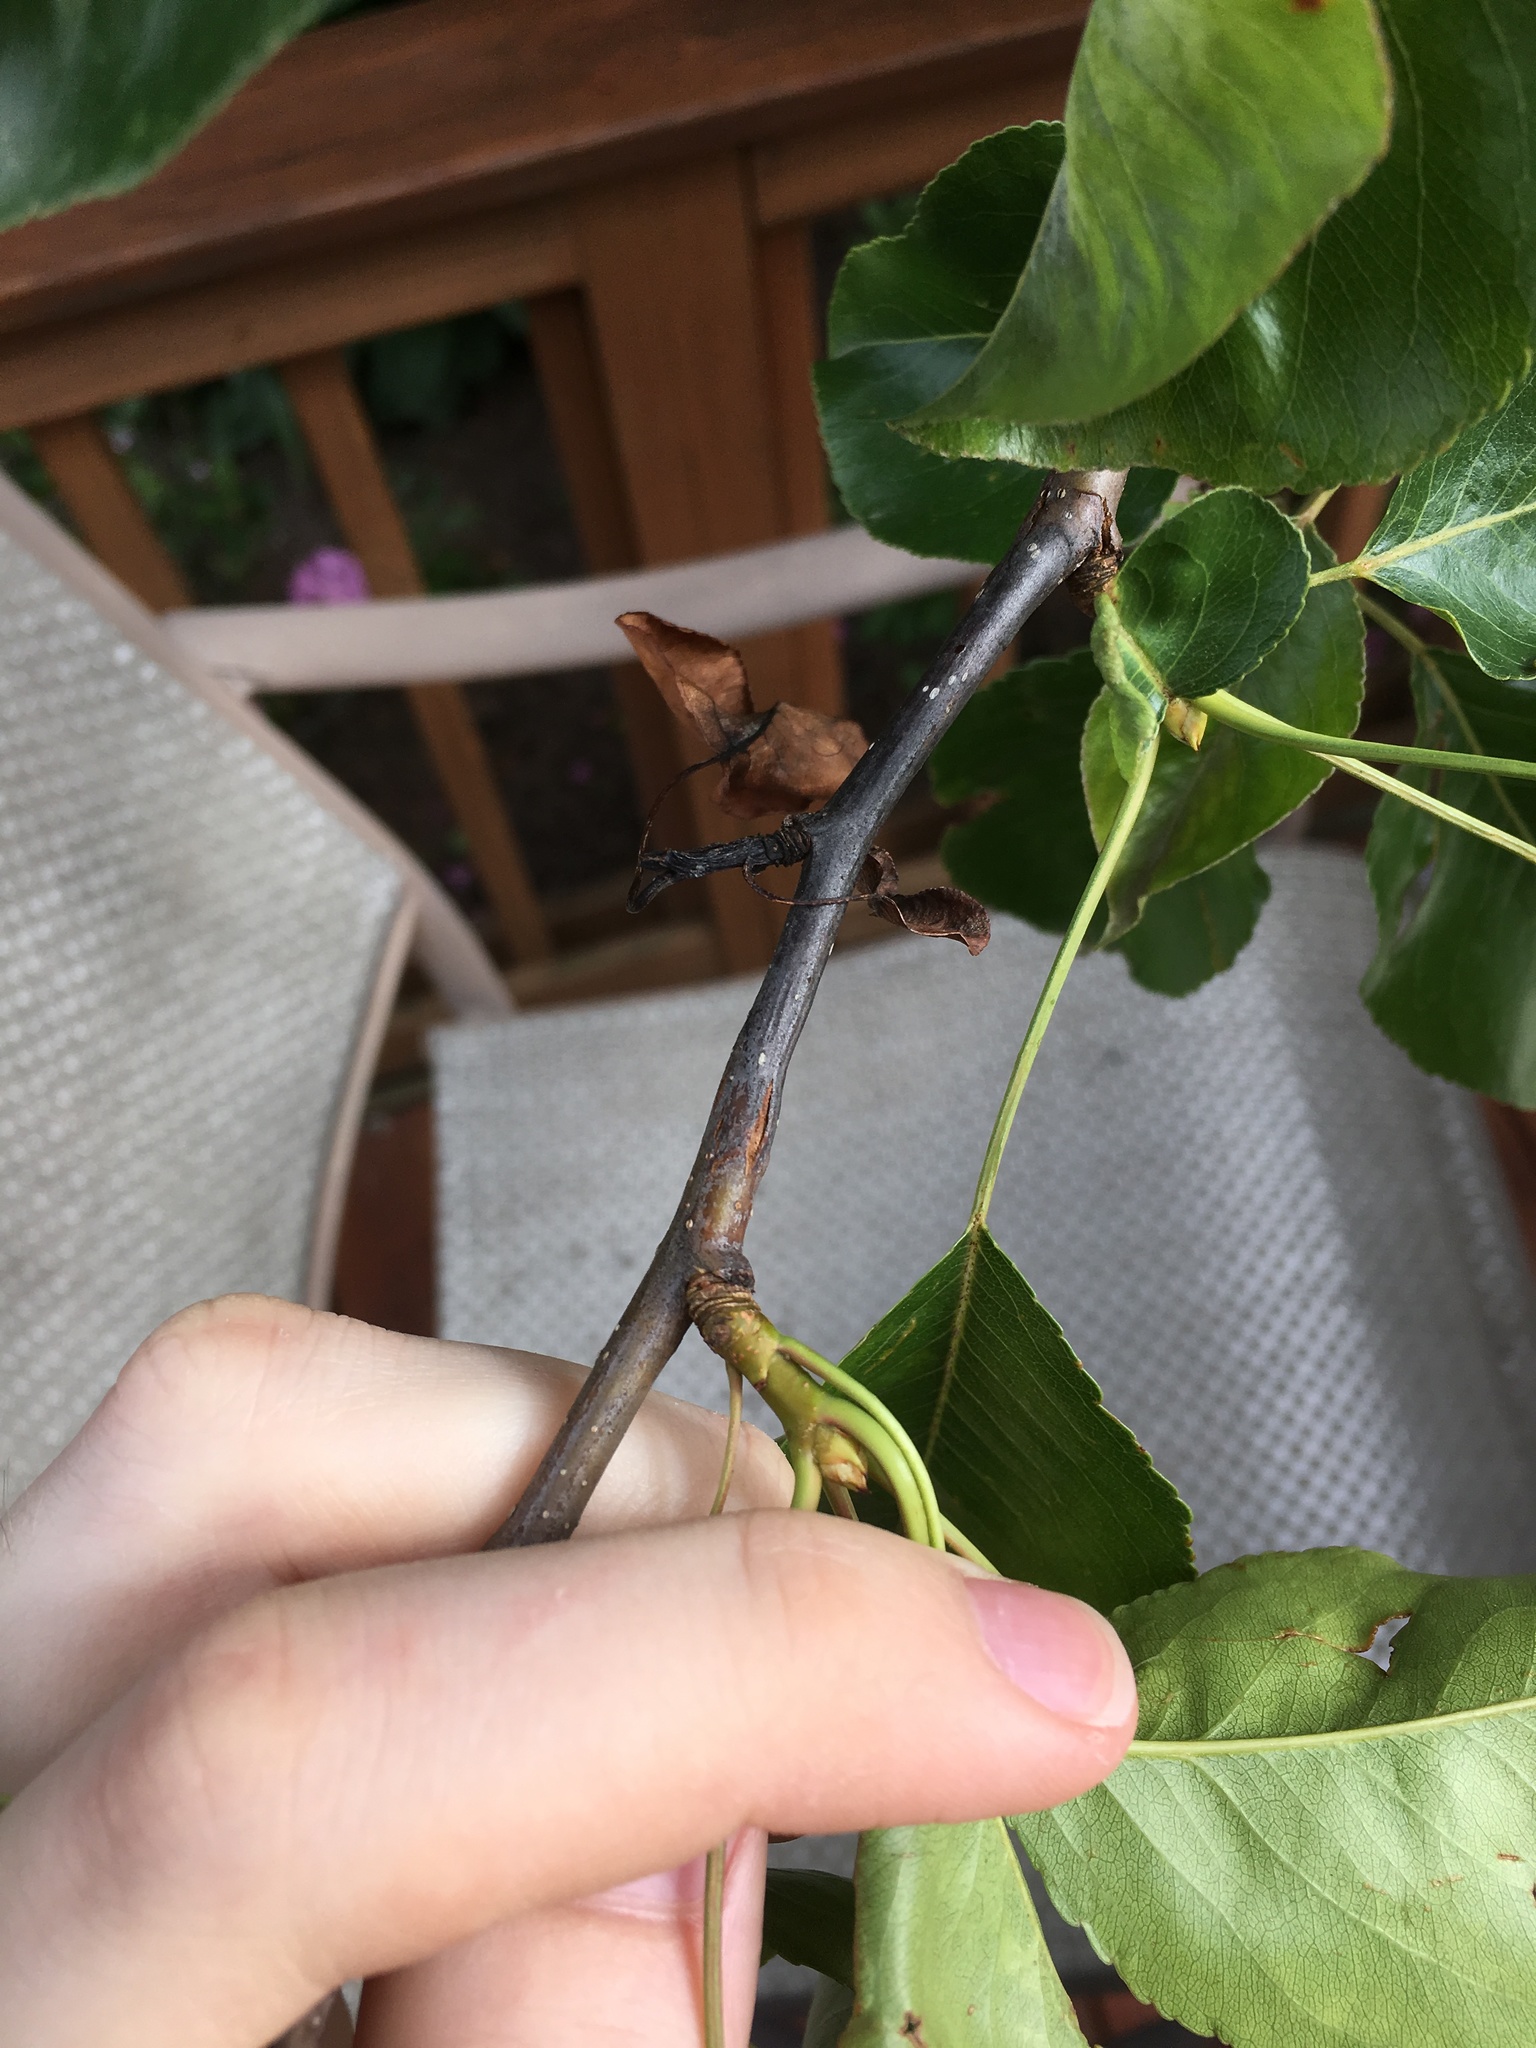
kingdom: Bacteria
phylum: Proteobacteria
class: Gammaproteobacteria
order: Enterobacterales
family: Enterobacteriaceae
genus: Erwinia
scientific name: Erwinia amylovora
